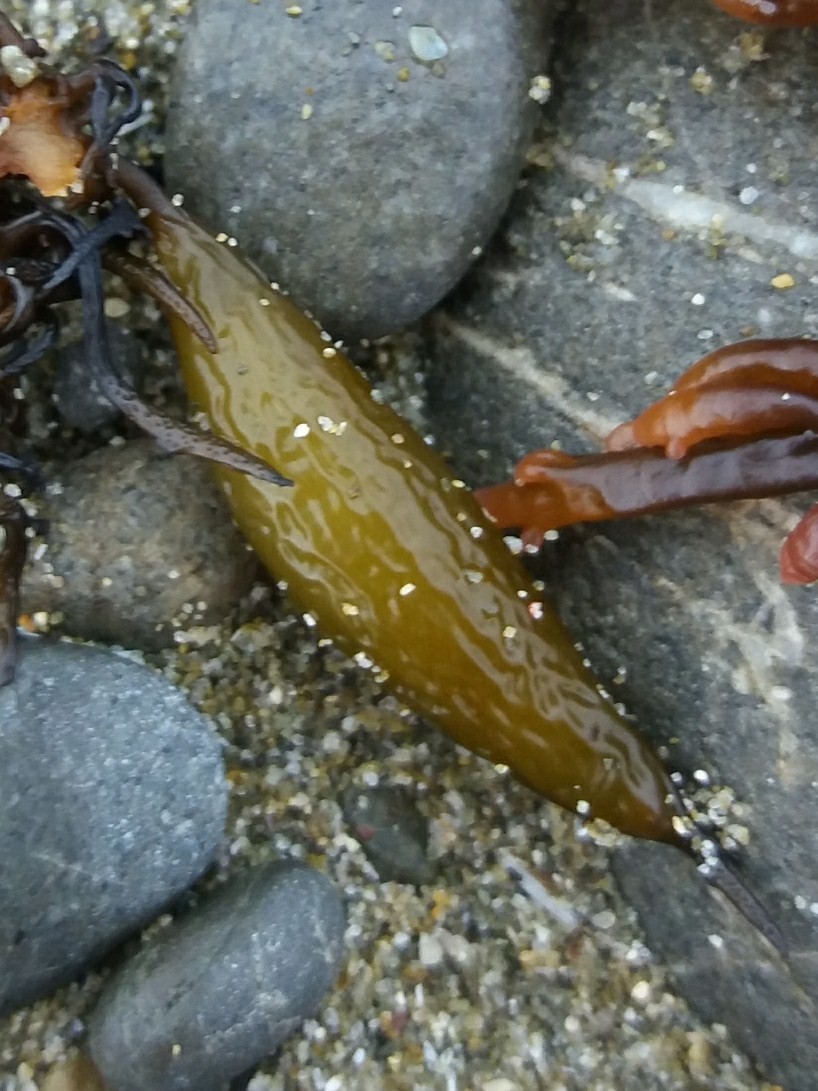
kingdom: Chromista
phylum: Ochrophyta
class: Phaeophyceae
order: Laminariales
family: Laminariaceae
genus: Macrocystis
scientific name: Macrocystis pyrifera
